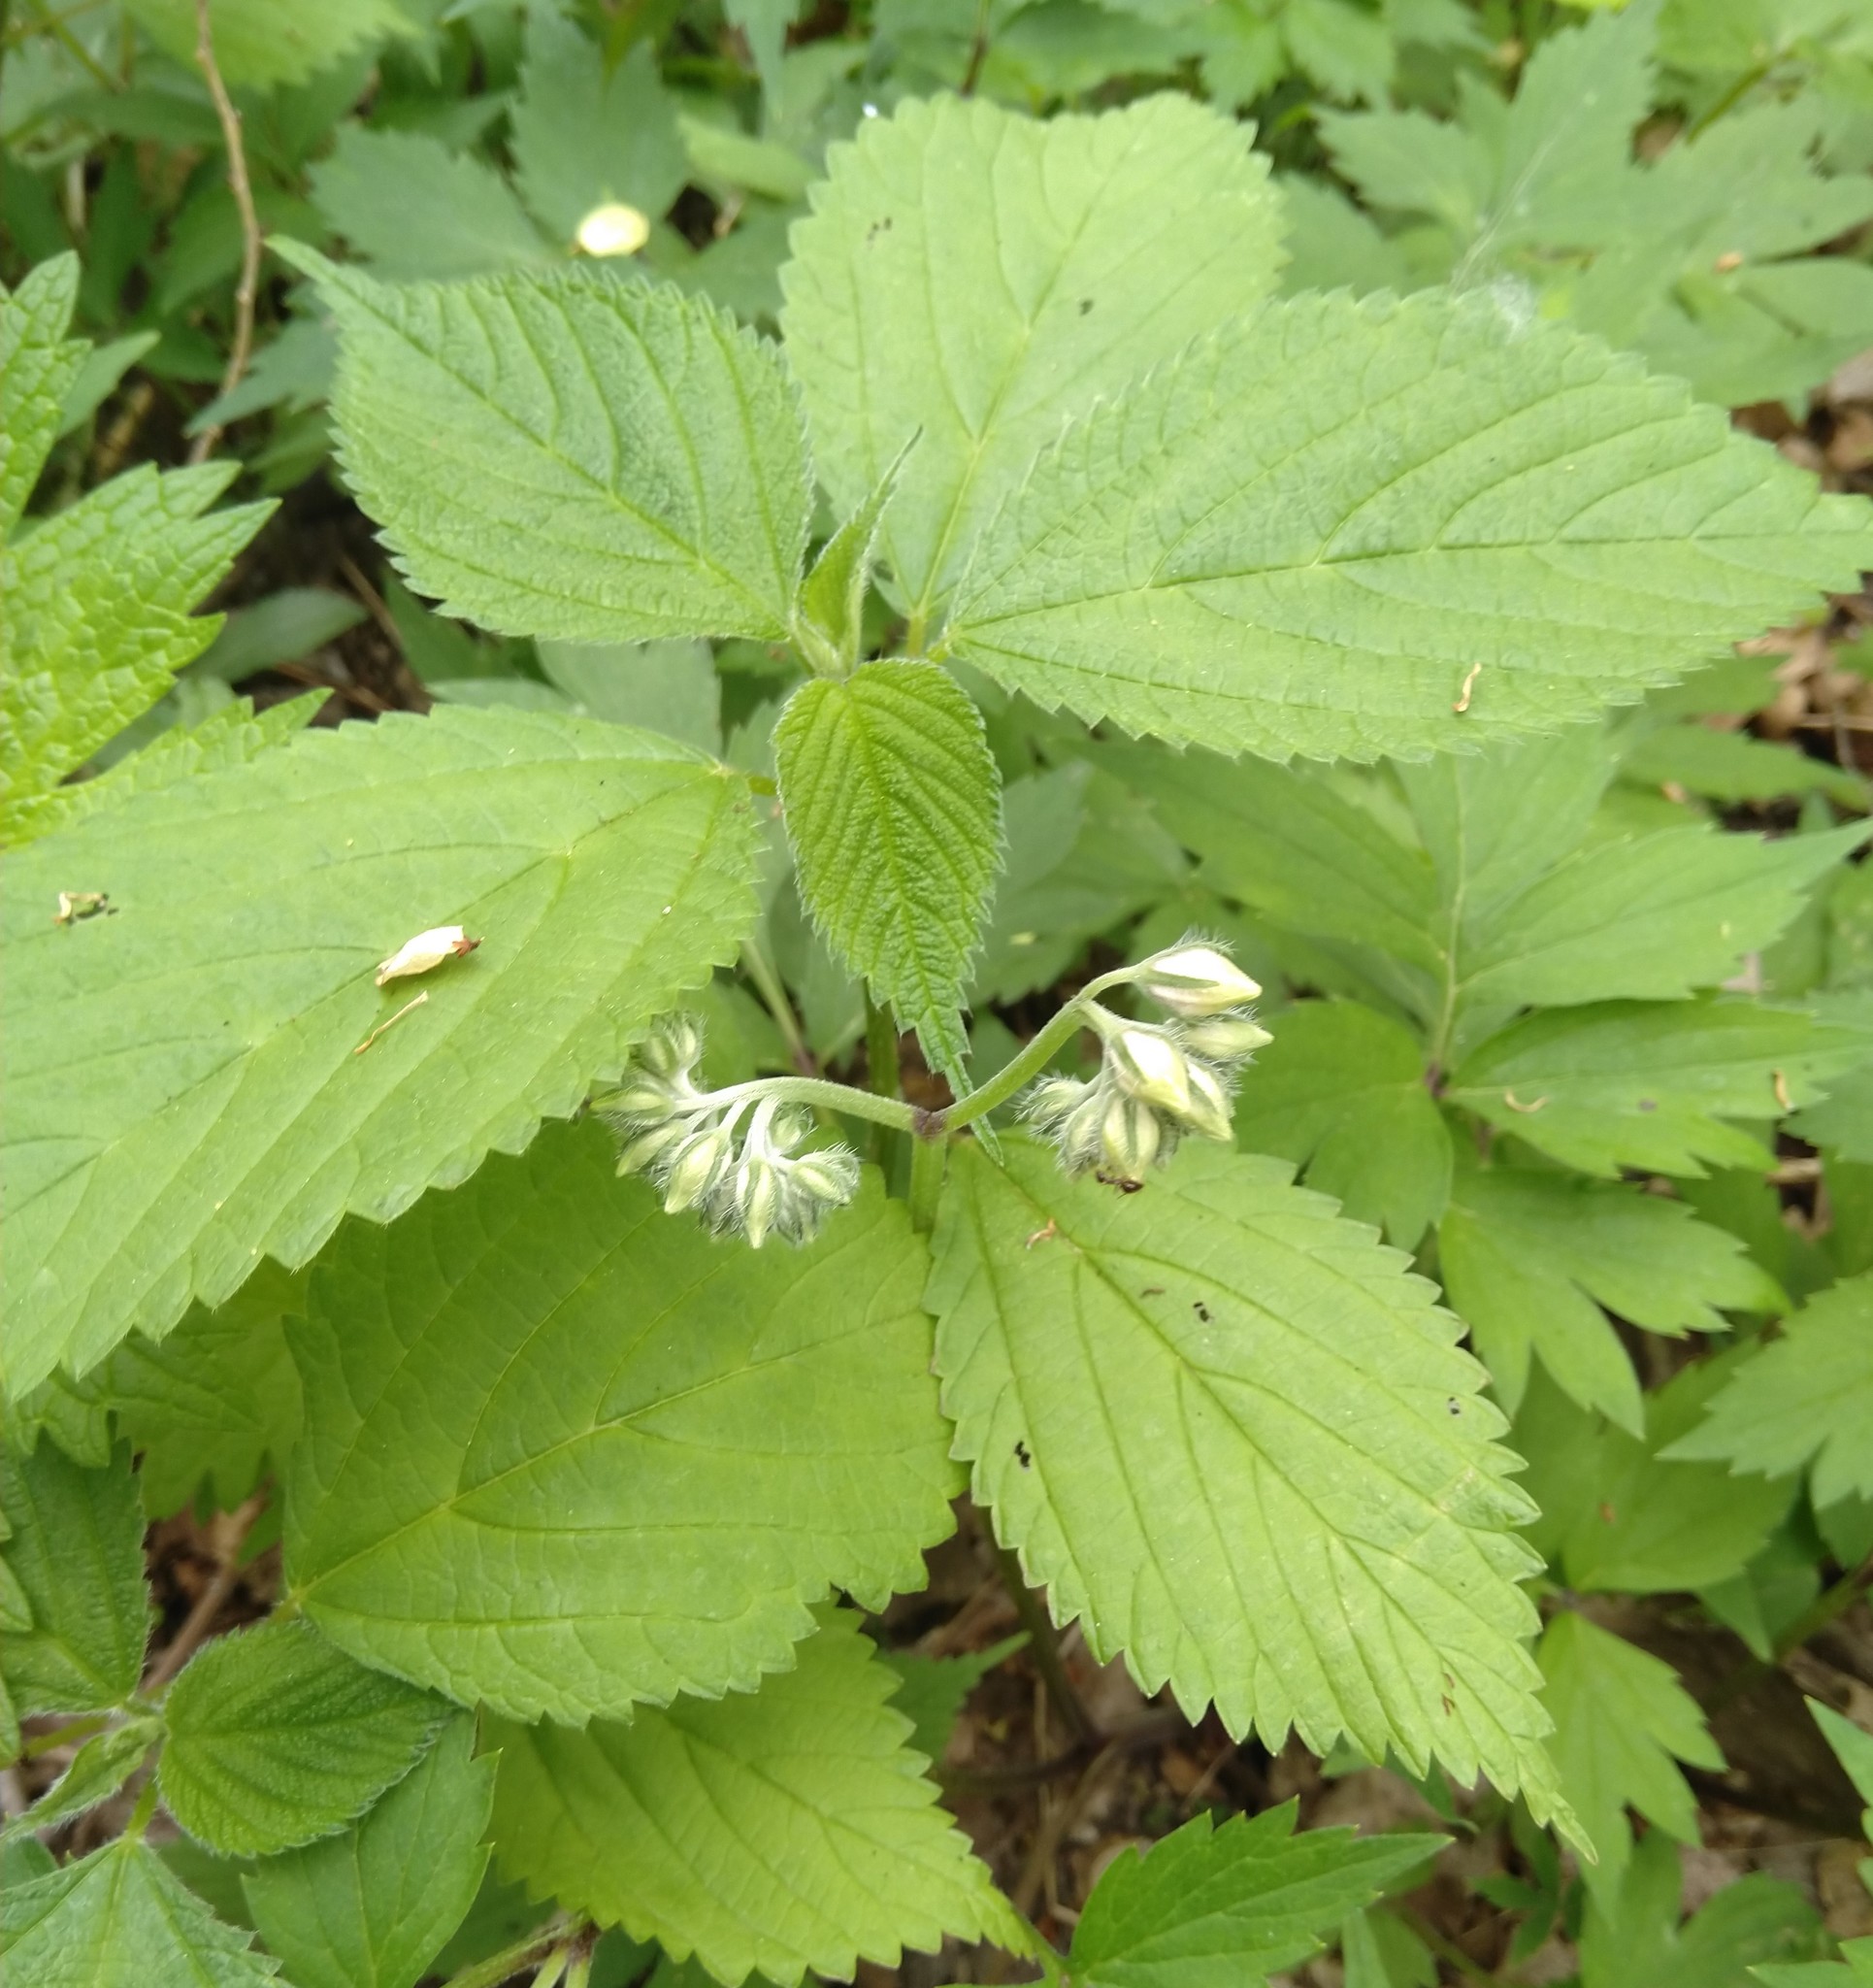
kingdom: Plantae
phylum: Tracheophyta
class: Magnoliopsida
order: Rosales
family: Urticaceae
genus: Laportea
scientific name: Laportea canadensis
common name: Canada nettle
